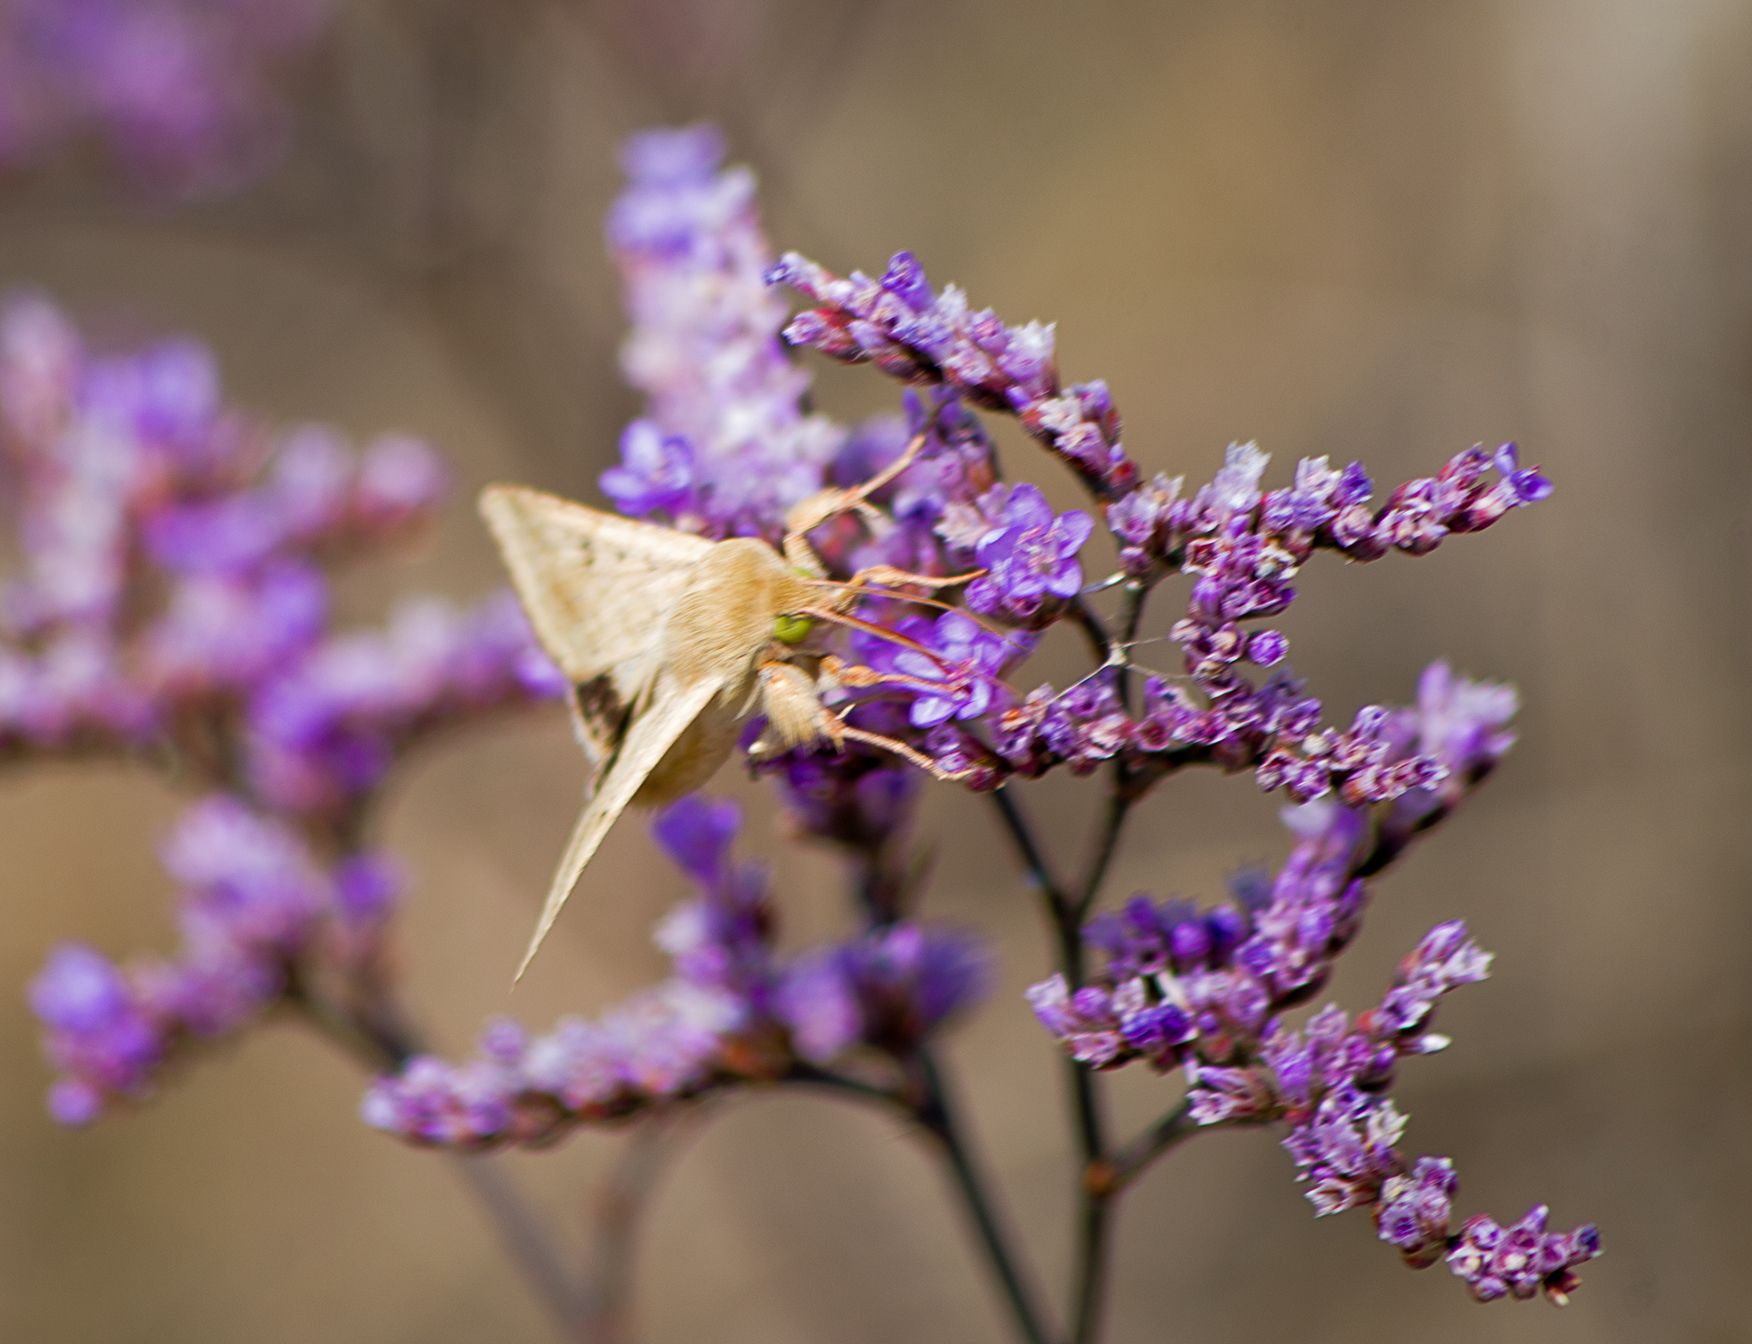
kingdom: Animalia
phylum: Arthropoda
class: Insecta
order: Lepidoptera
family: Noctuidae
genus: Helicoverpa
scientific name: Helicoverpa armigera
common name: Cotton bollworm
